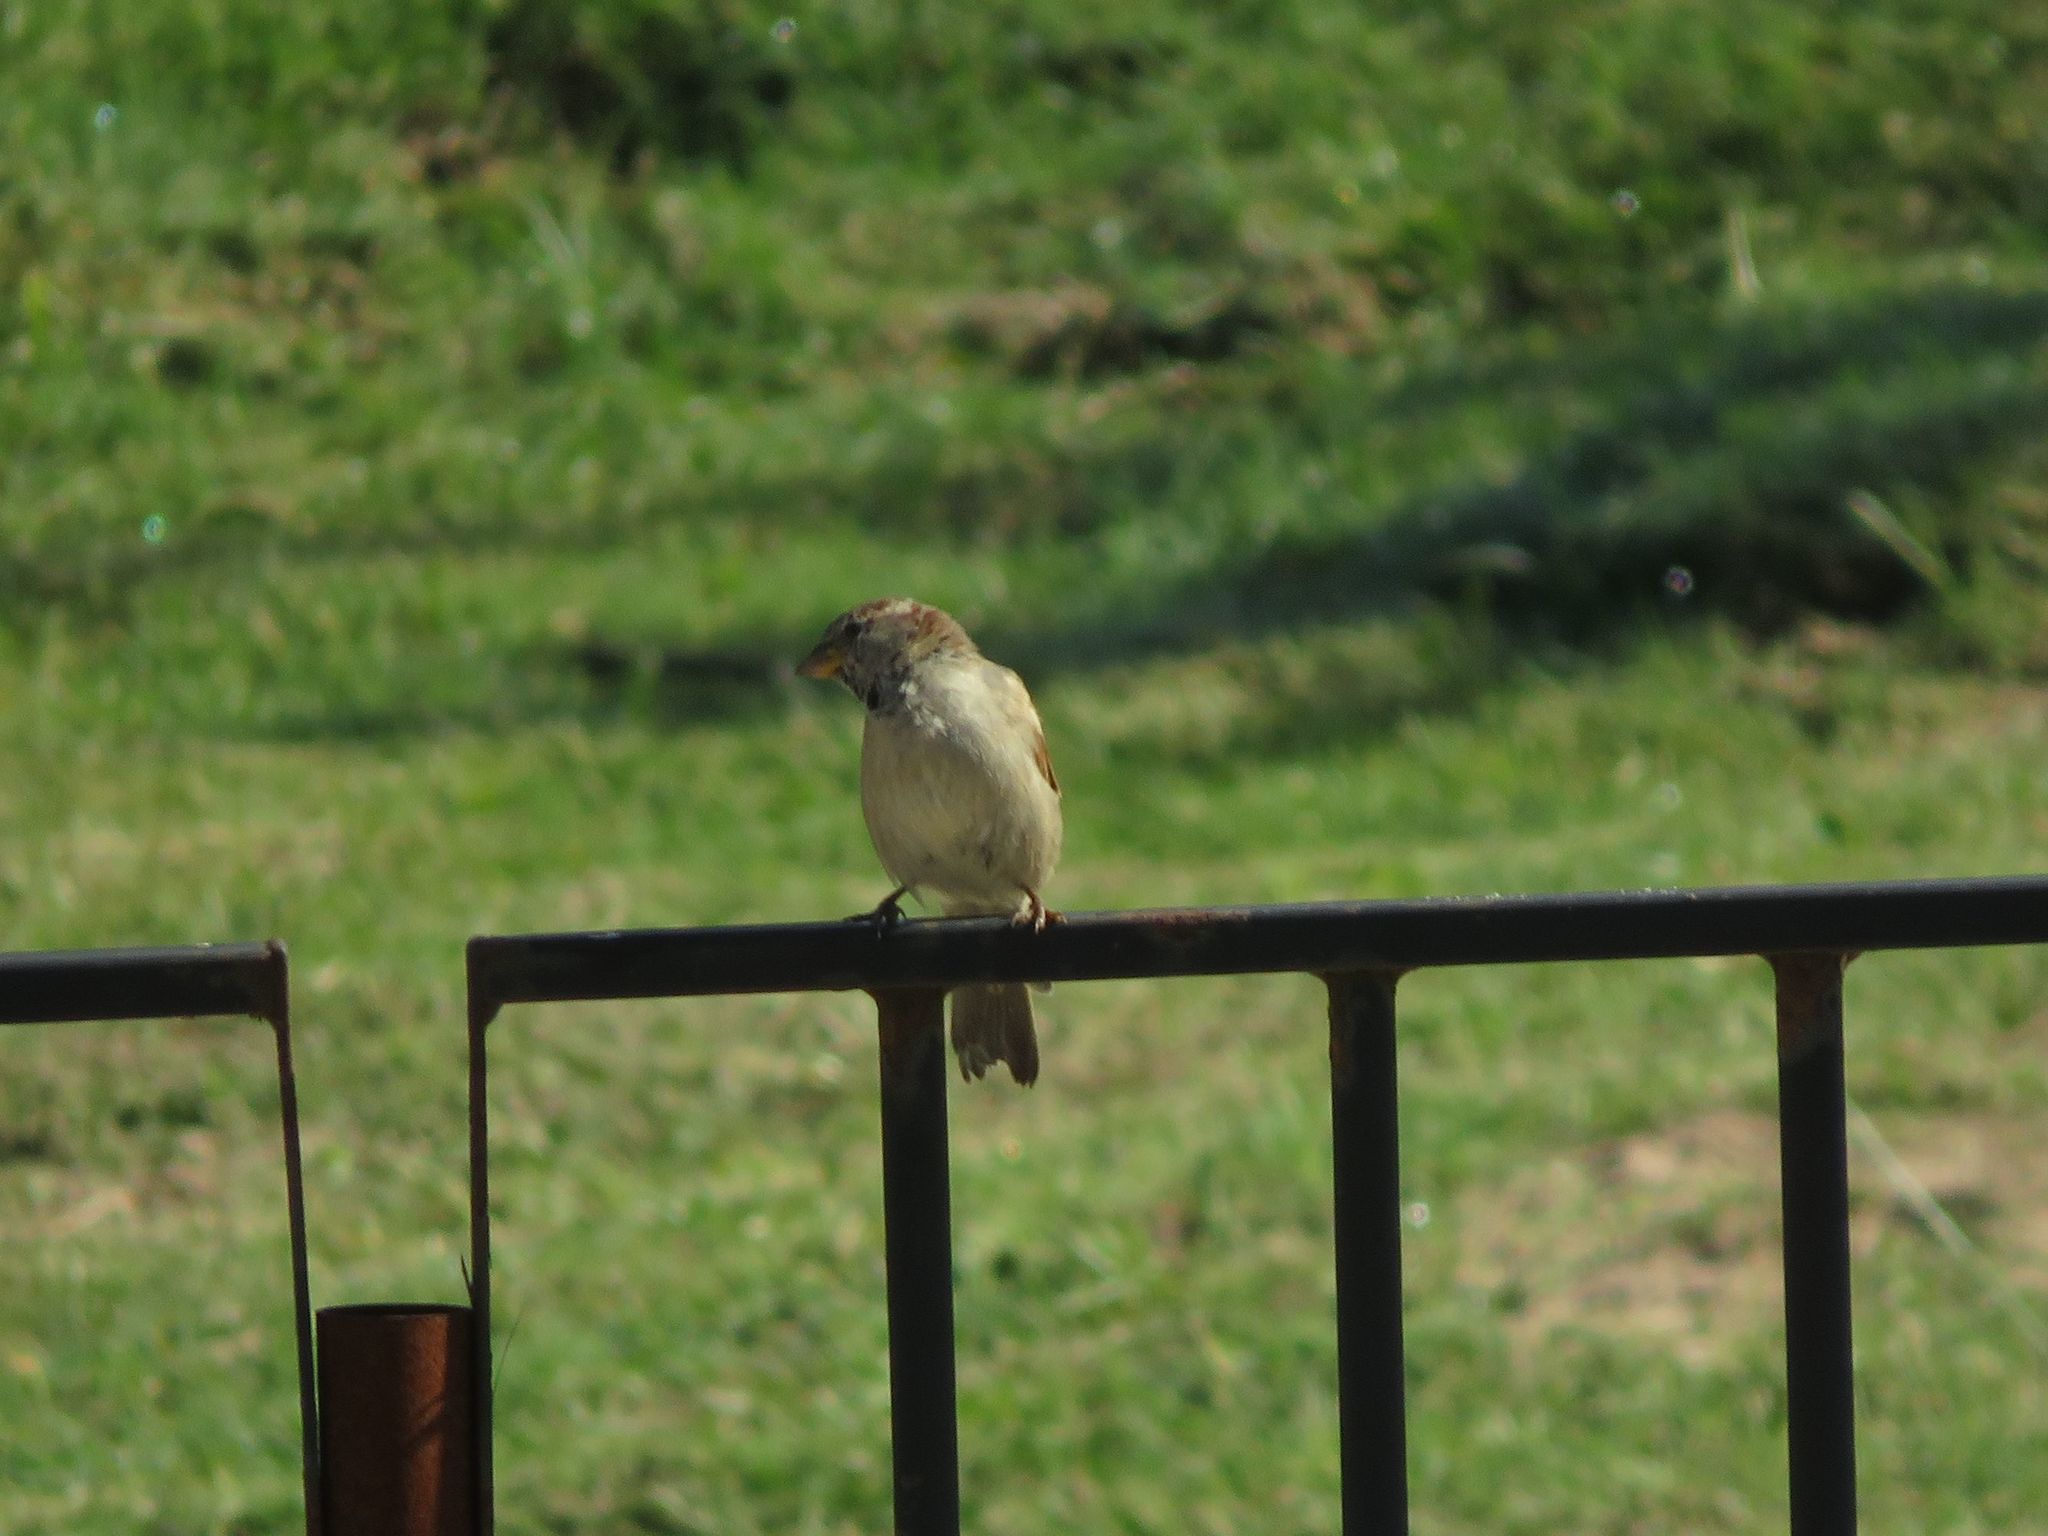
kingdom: Animalia
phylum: Chordata
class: Aves
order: Passeriformes
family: Passeridae
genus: Passer
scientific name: Passer domesticus
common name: House sparrow
